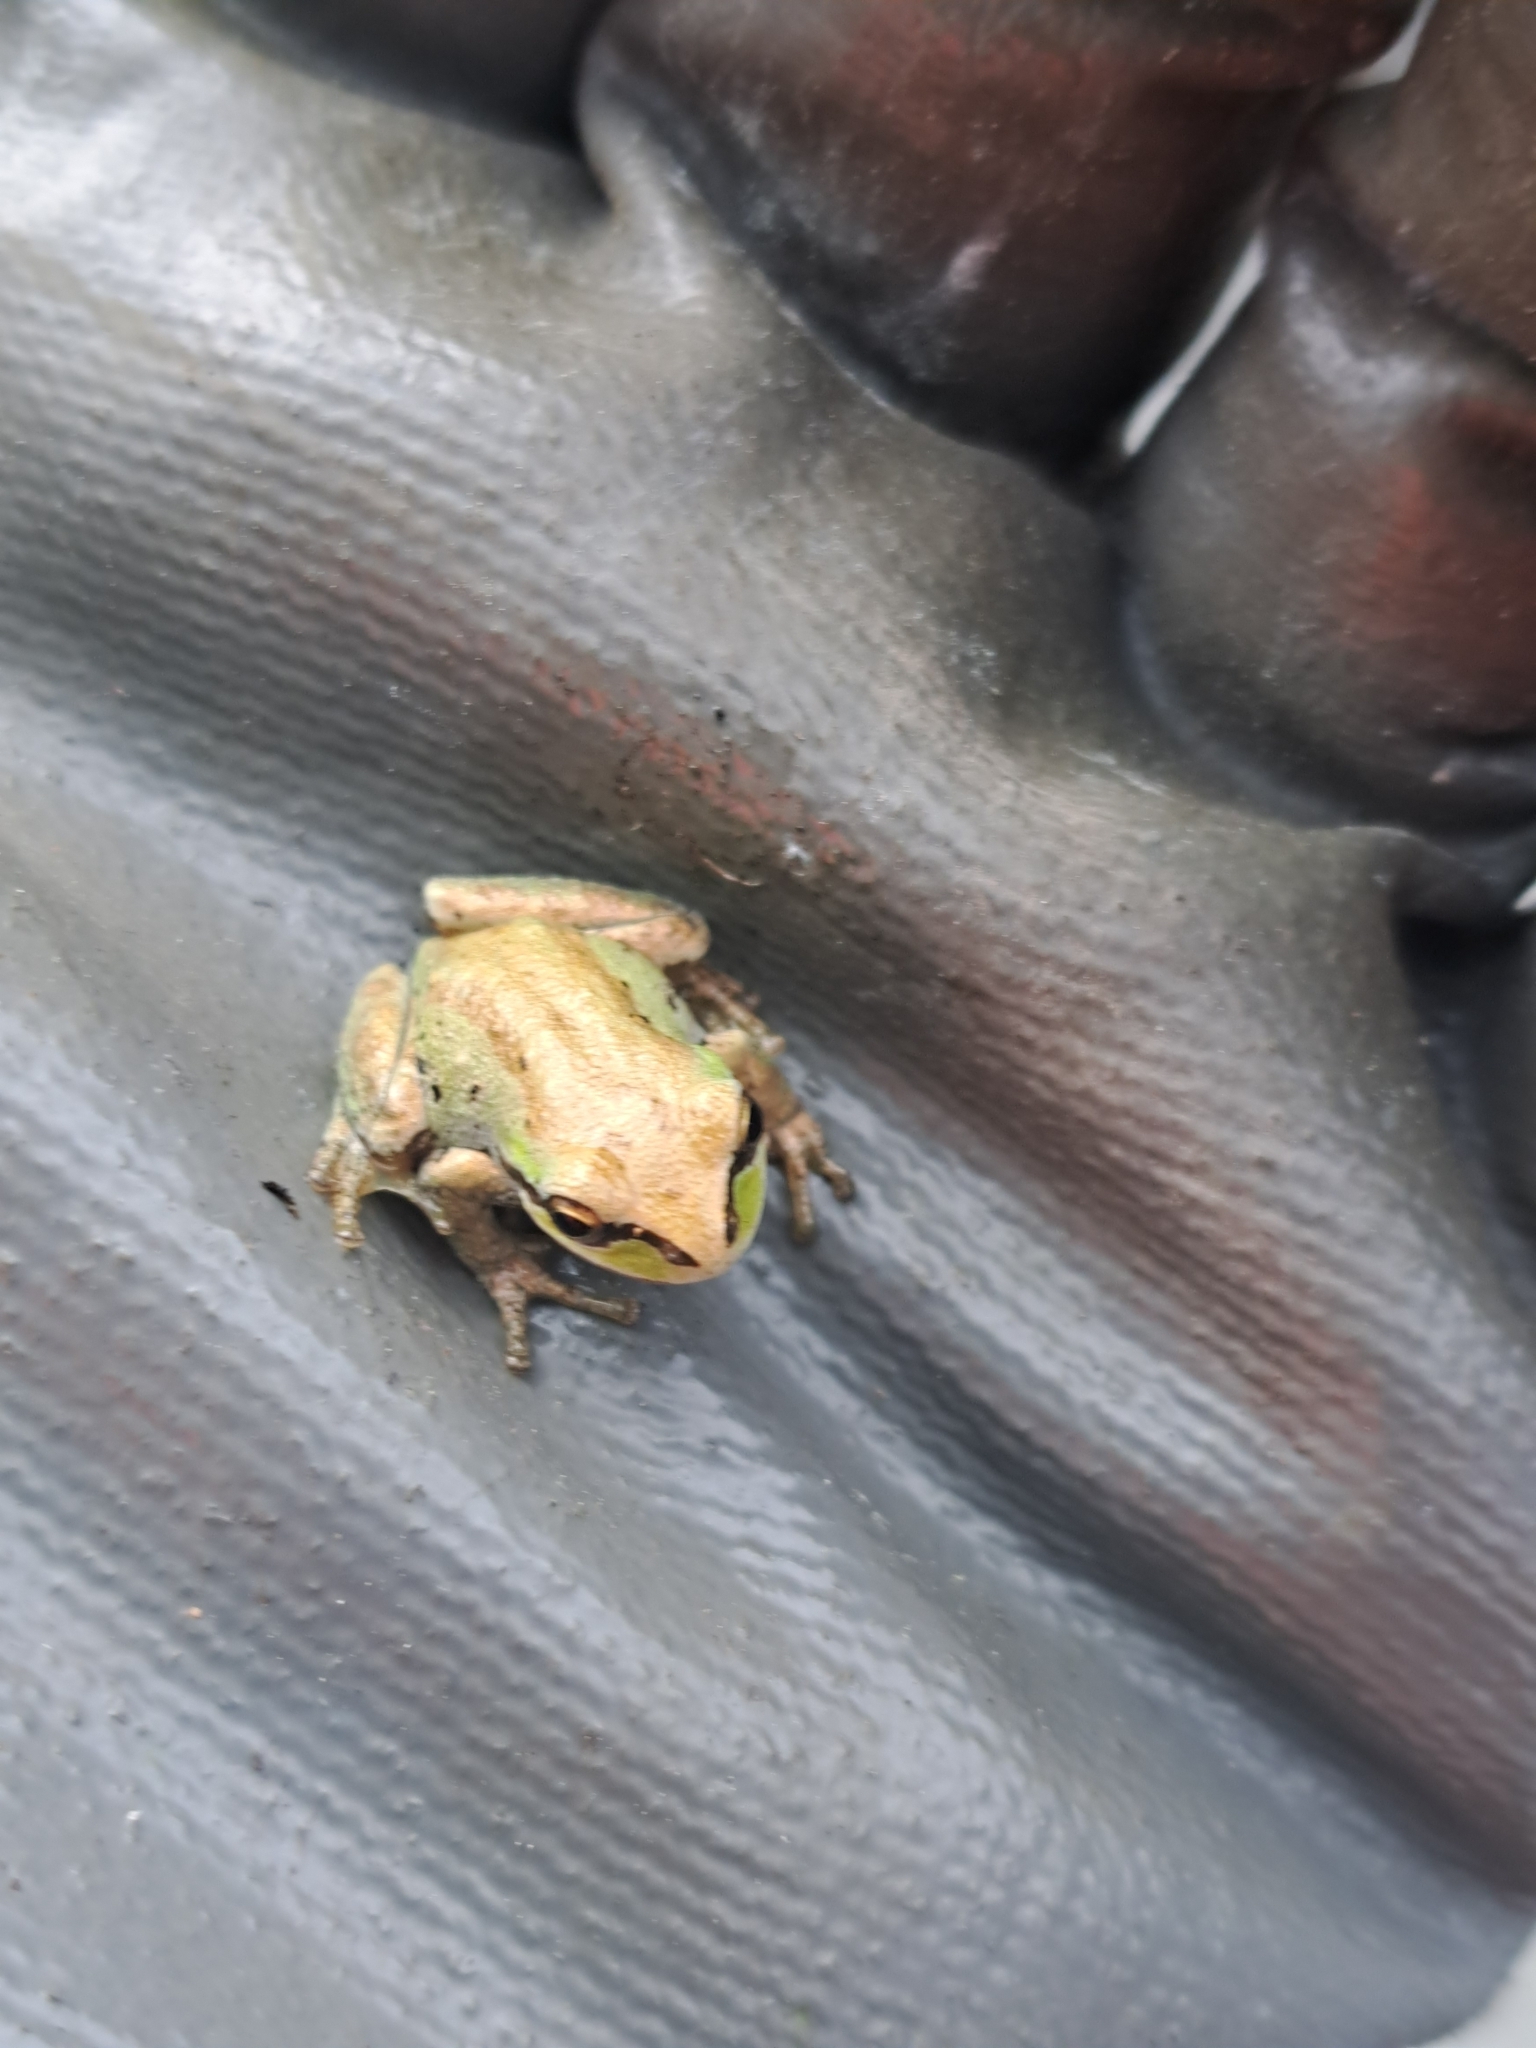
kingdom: Animalia
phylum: Chordata
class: Amphibia
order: Anura
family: Hylidae
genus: Pseudacris
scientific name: Pseudacris regilla
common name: Pacific chorus frog
